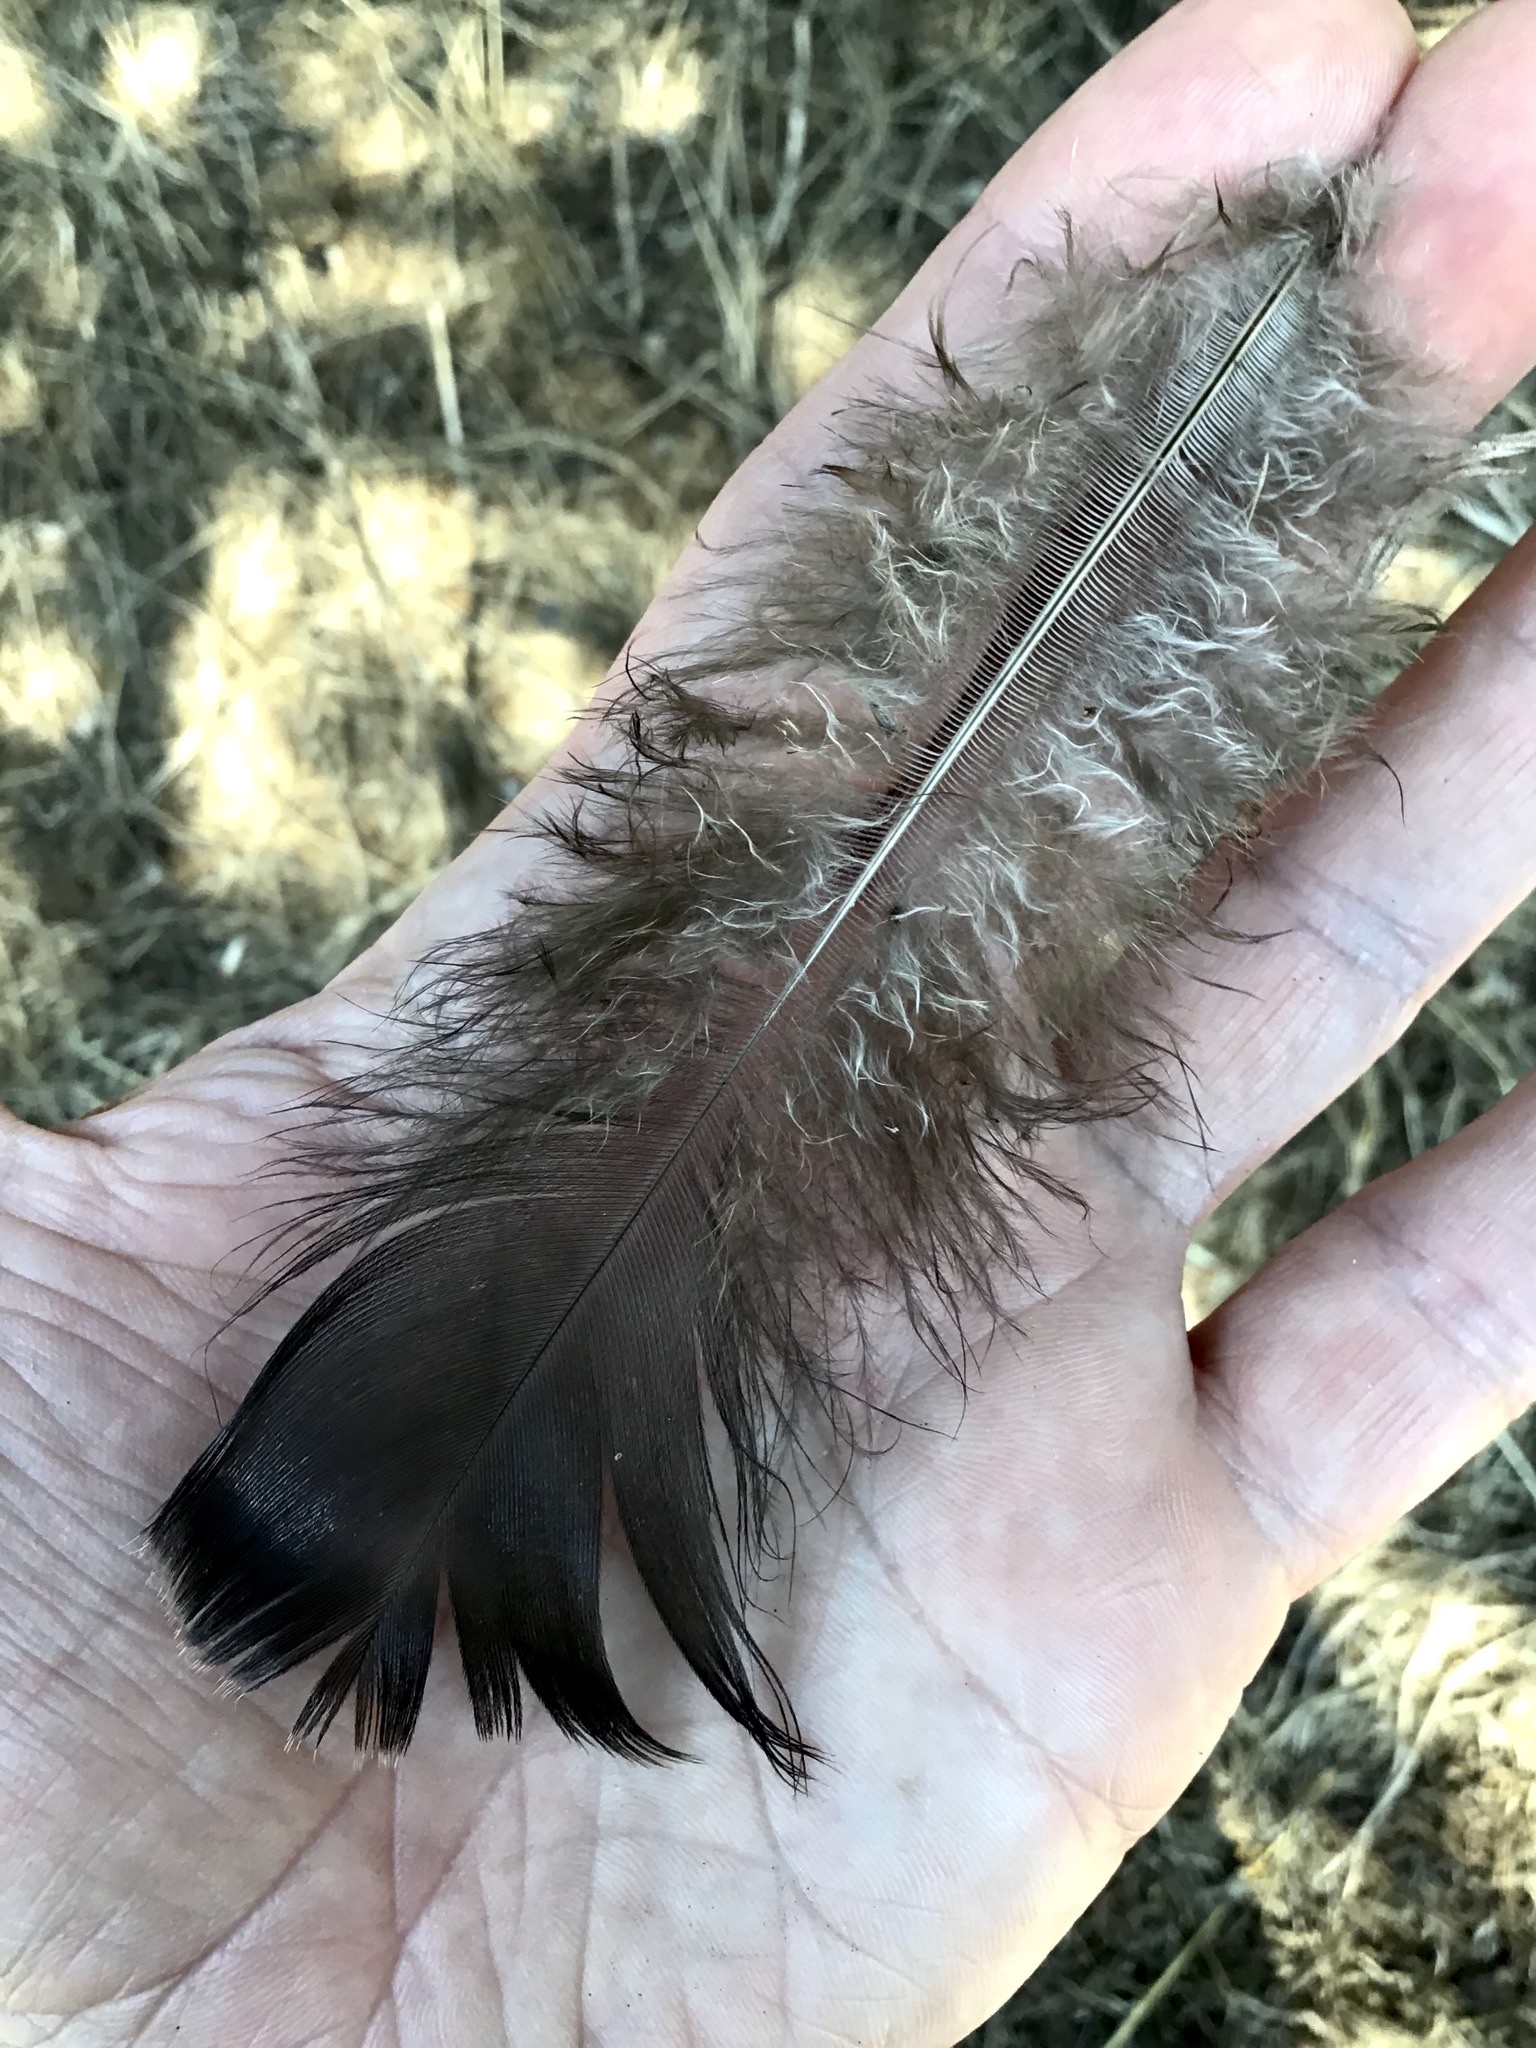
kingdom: Animalia
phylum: Chordata
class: Aves
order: Galliformes
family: Phasianidae
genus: Meleagris
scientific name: Meleagris gallopavo
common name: Wild turkey
